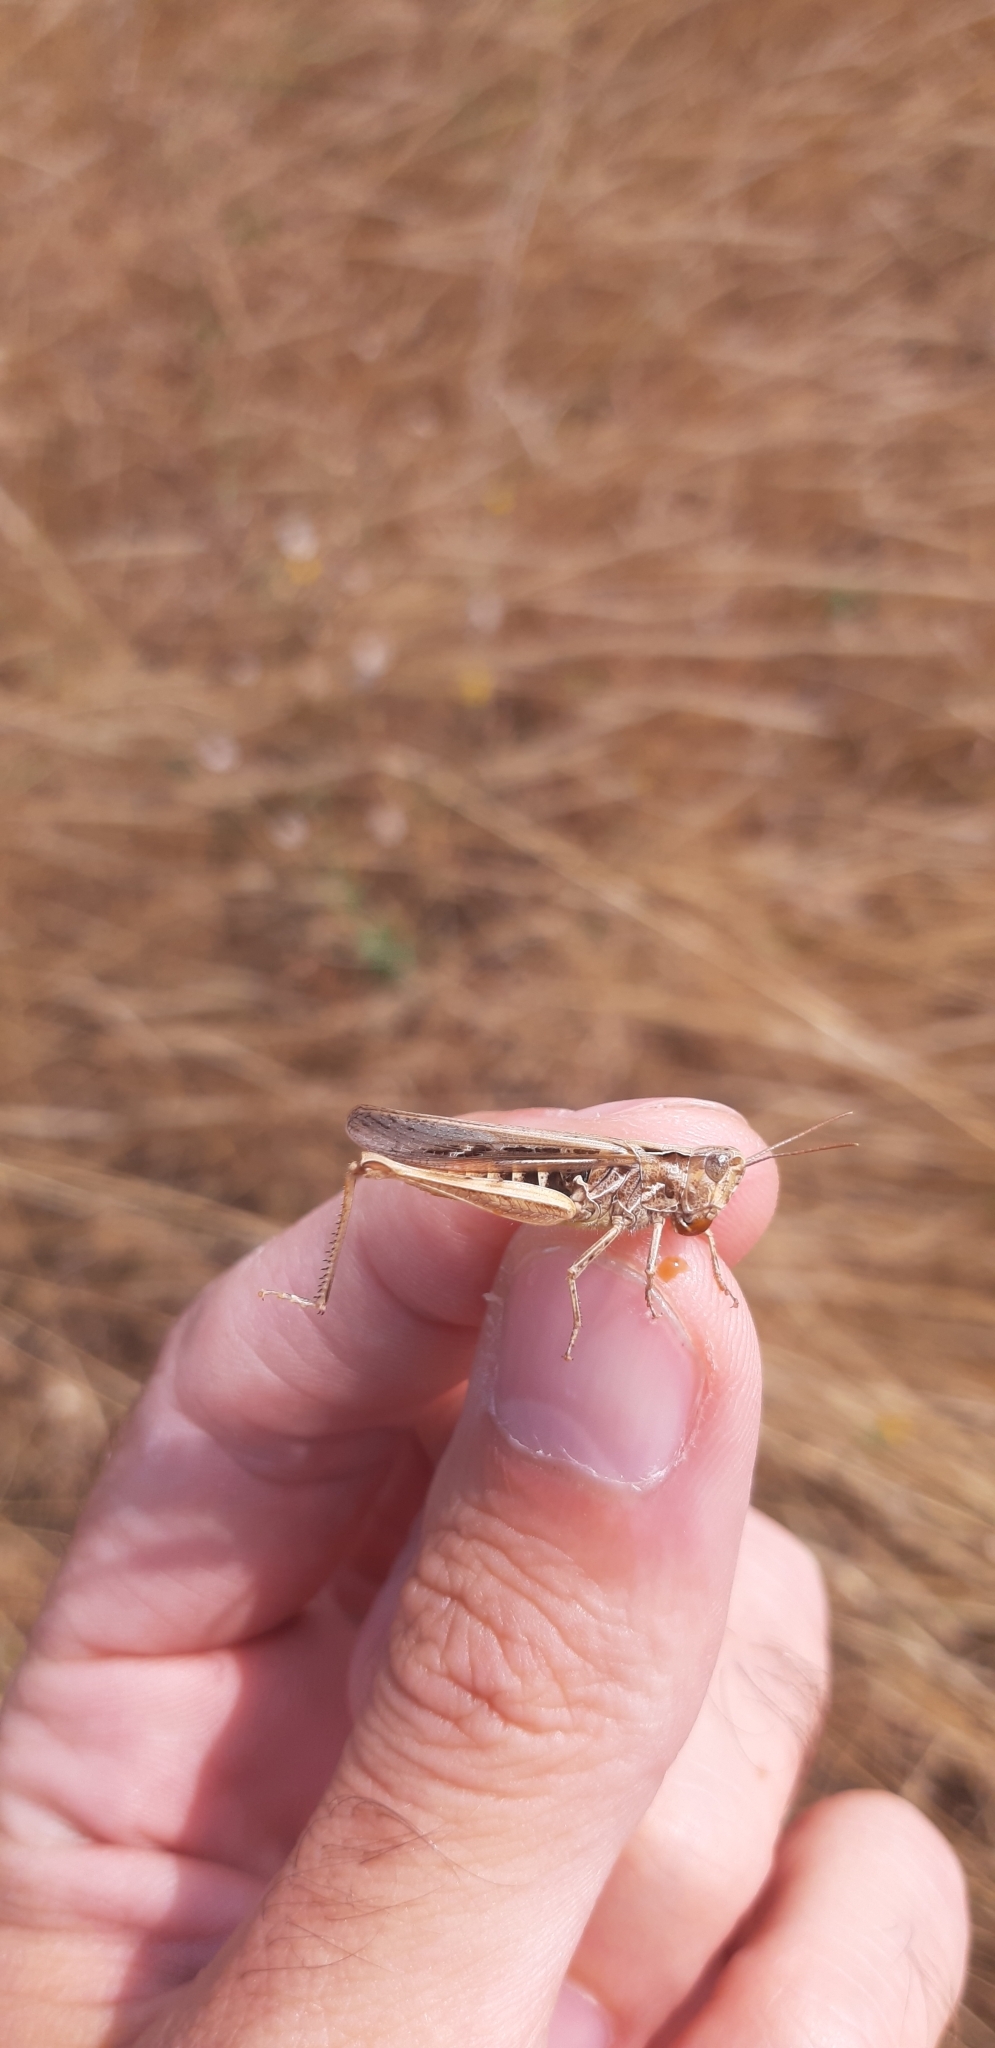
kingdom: Animalia
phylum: Arthropoda
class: Insecta
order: Orthoptera
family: Acrididae
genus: Chorthippus
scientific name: Chorthippus brunneus
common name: Field grasshopper
